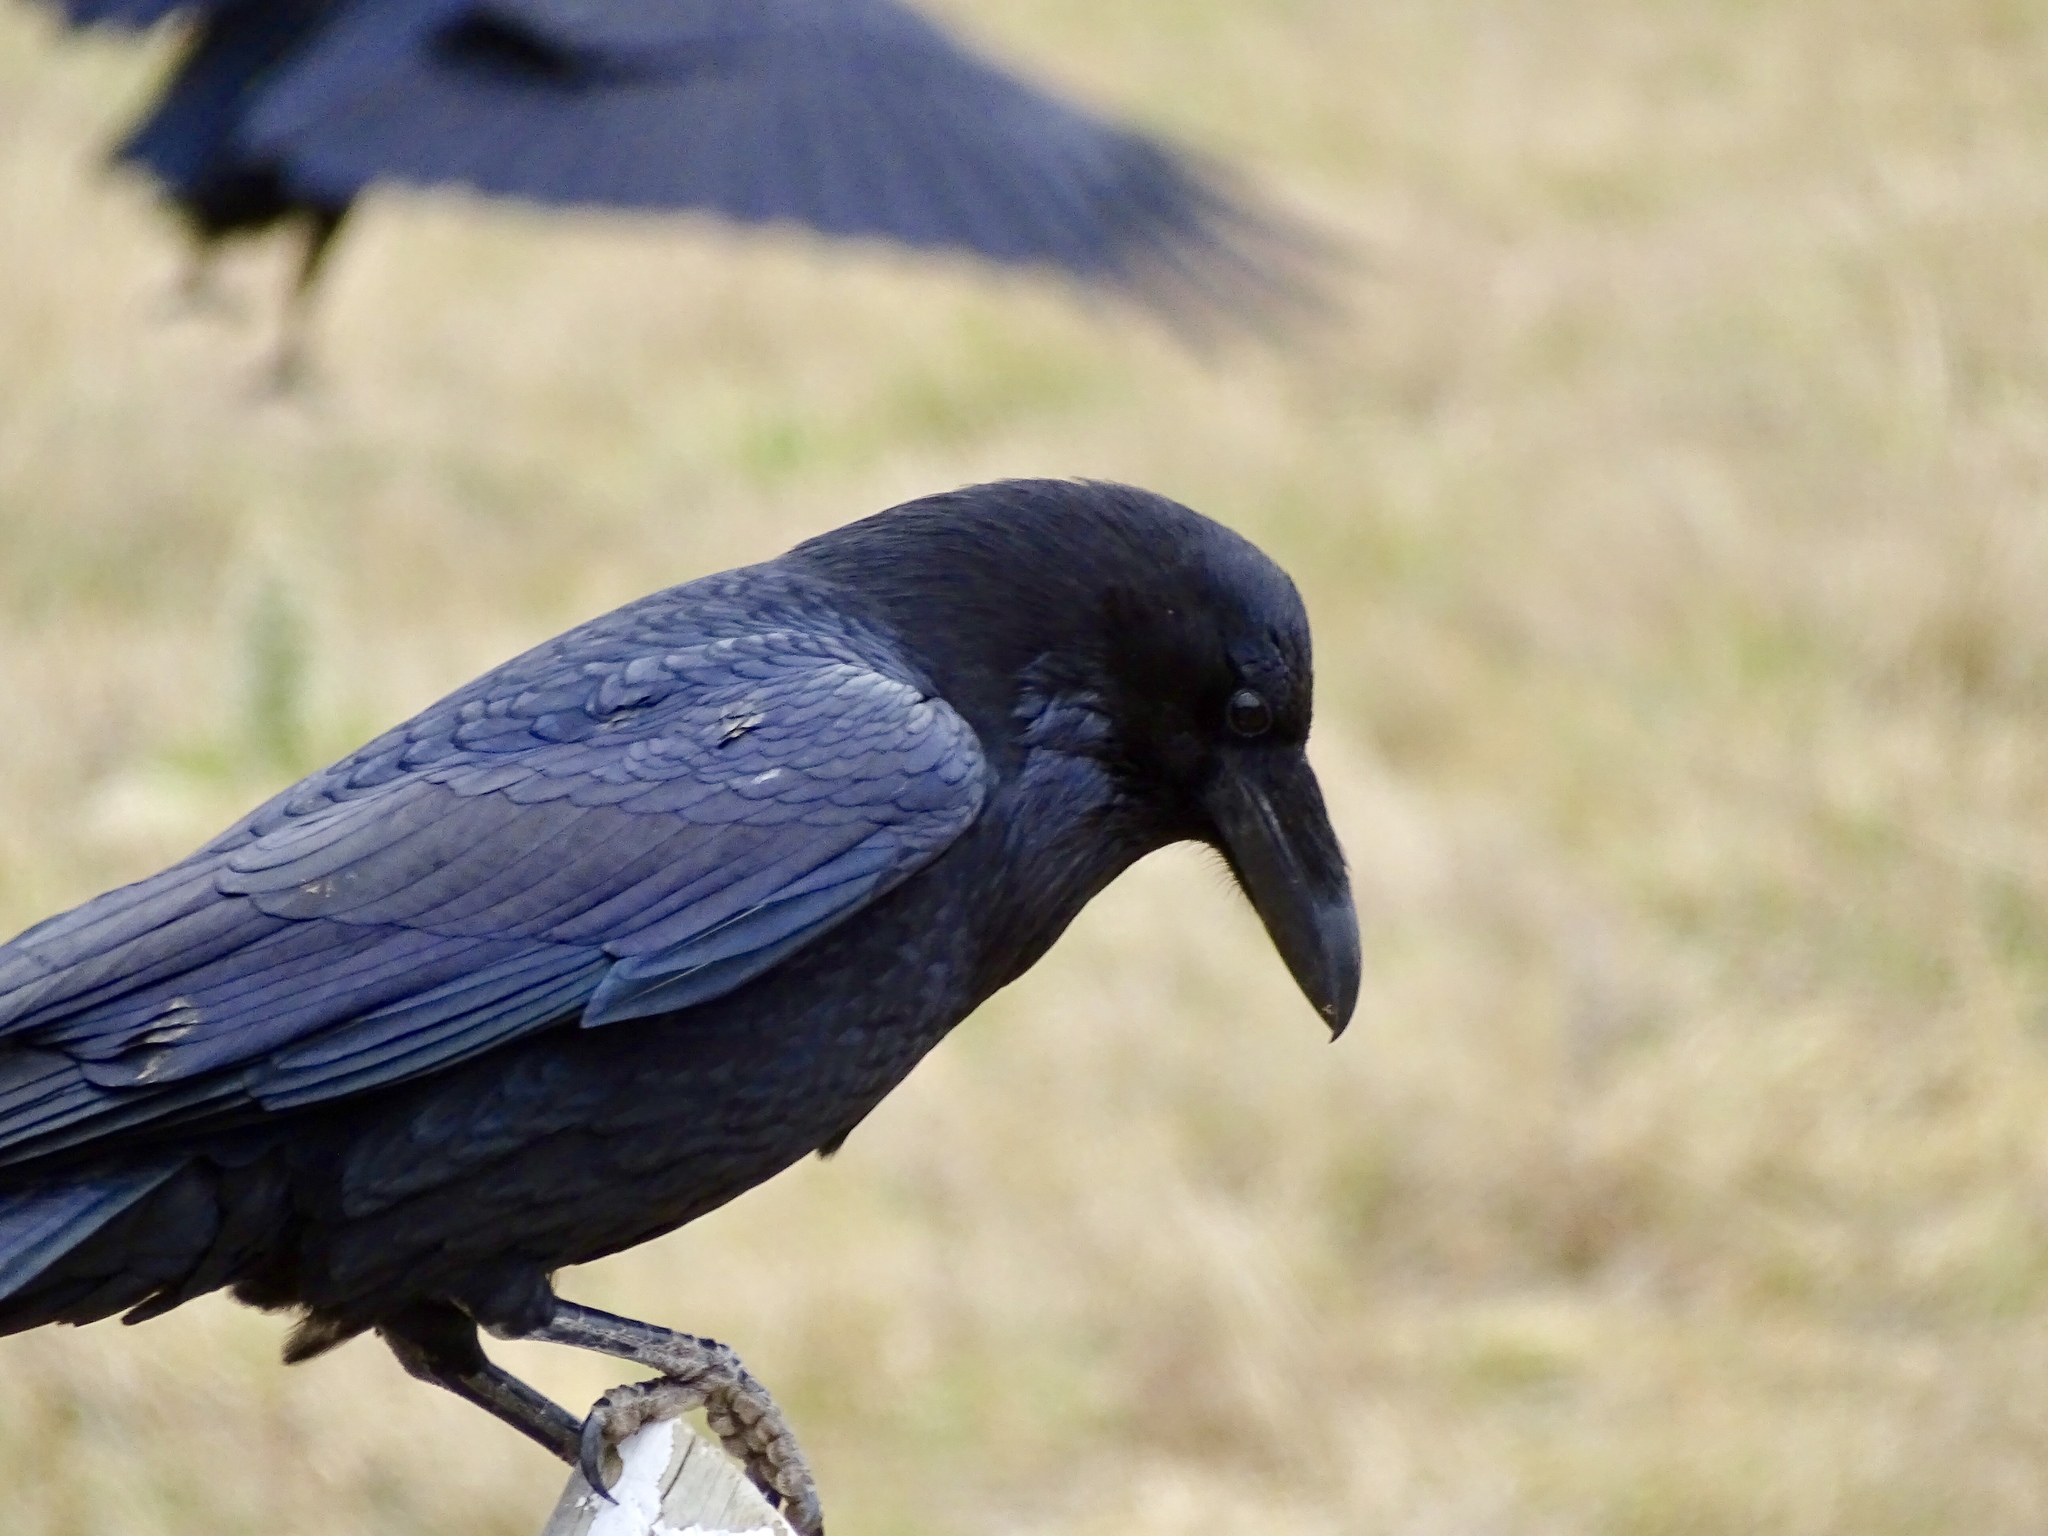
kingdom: Animalia
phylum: Chordata
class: Aves
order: Passeriformes
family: Corvidae
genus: Corvus
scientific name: Corvus cryptoleucus
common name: Chihuahuan raven
